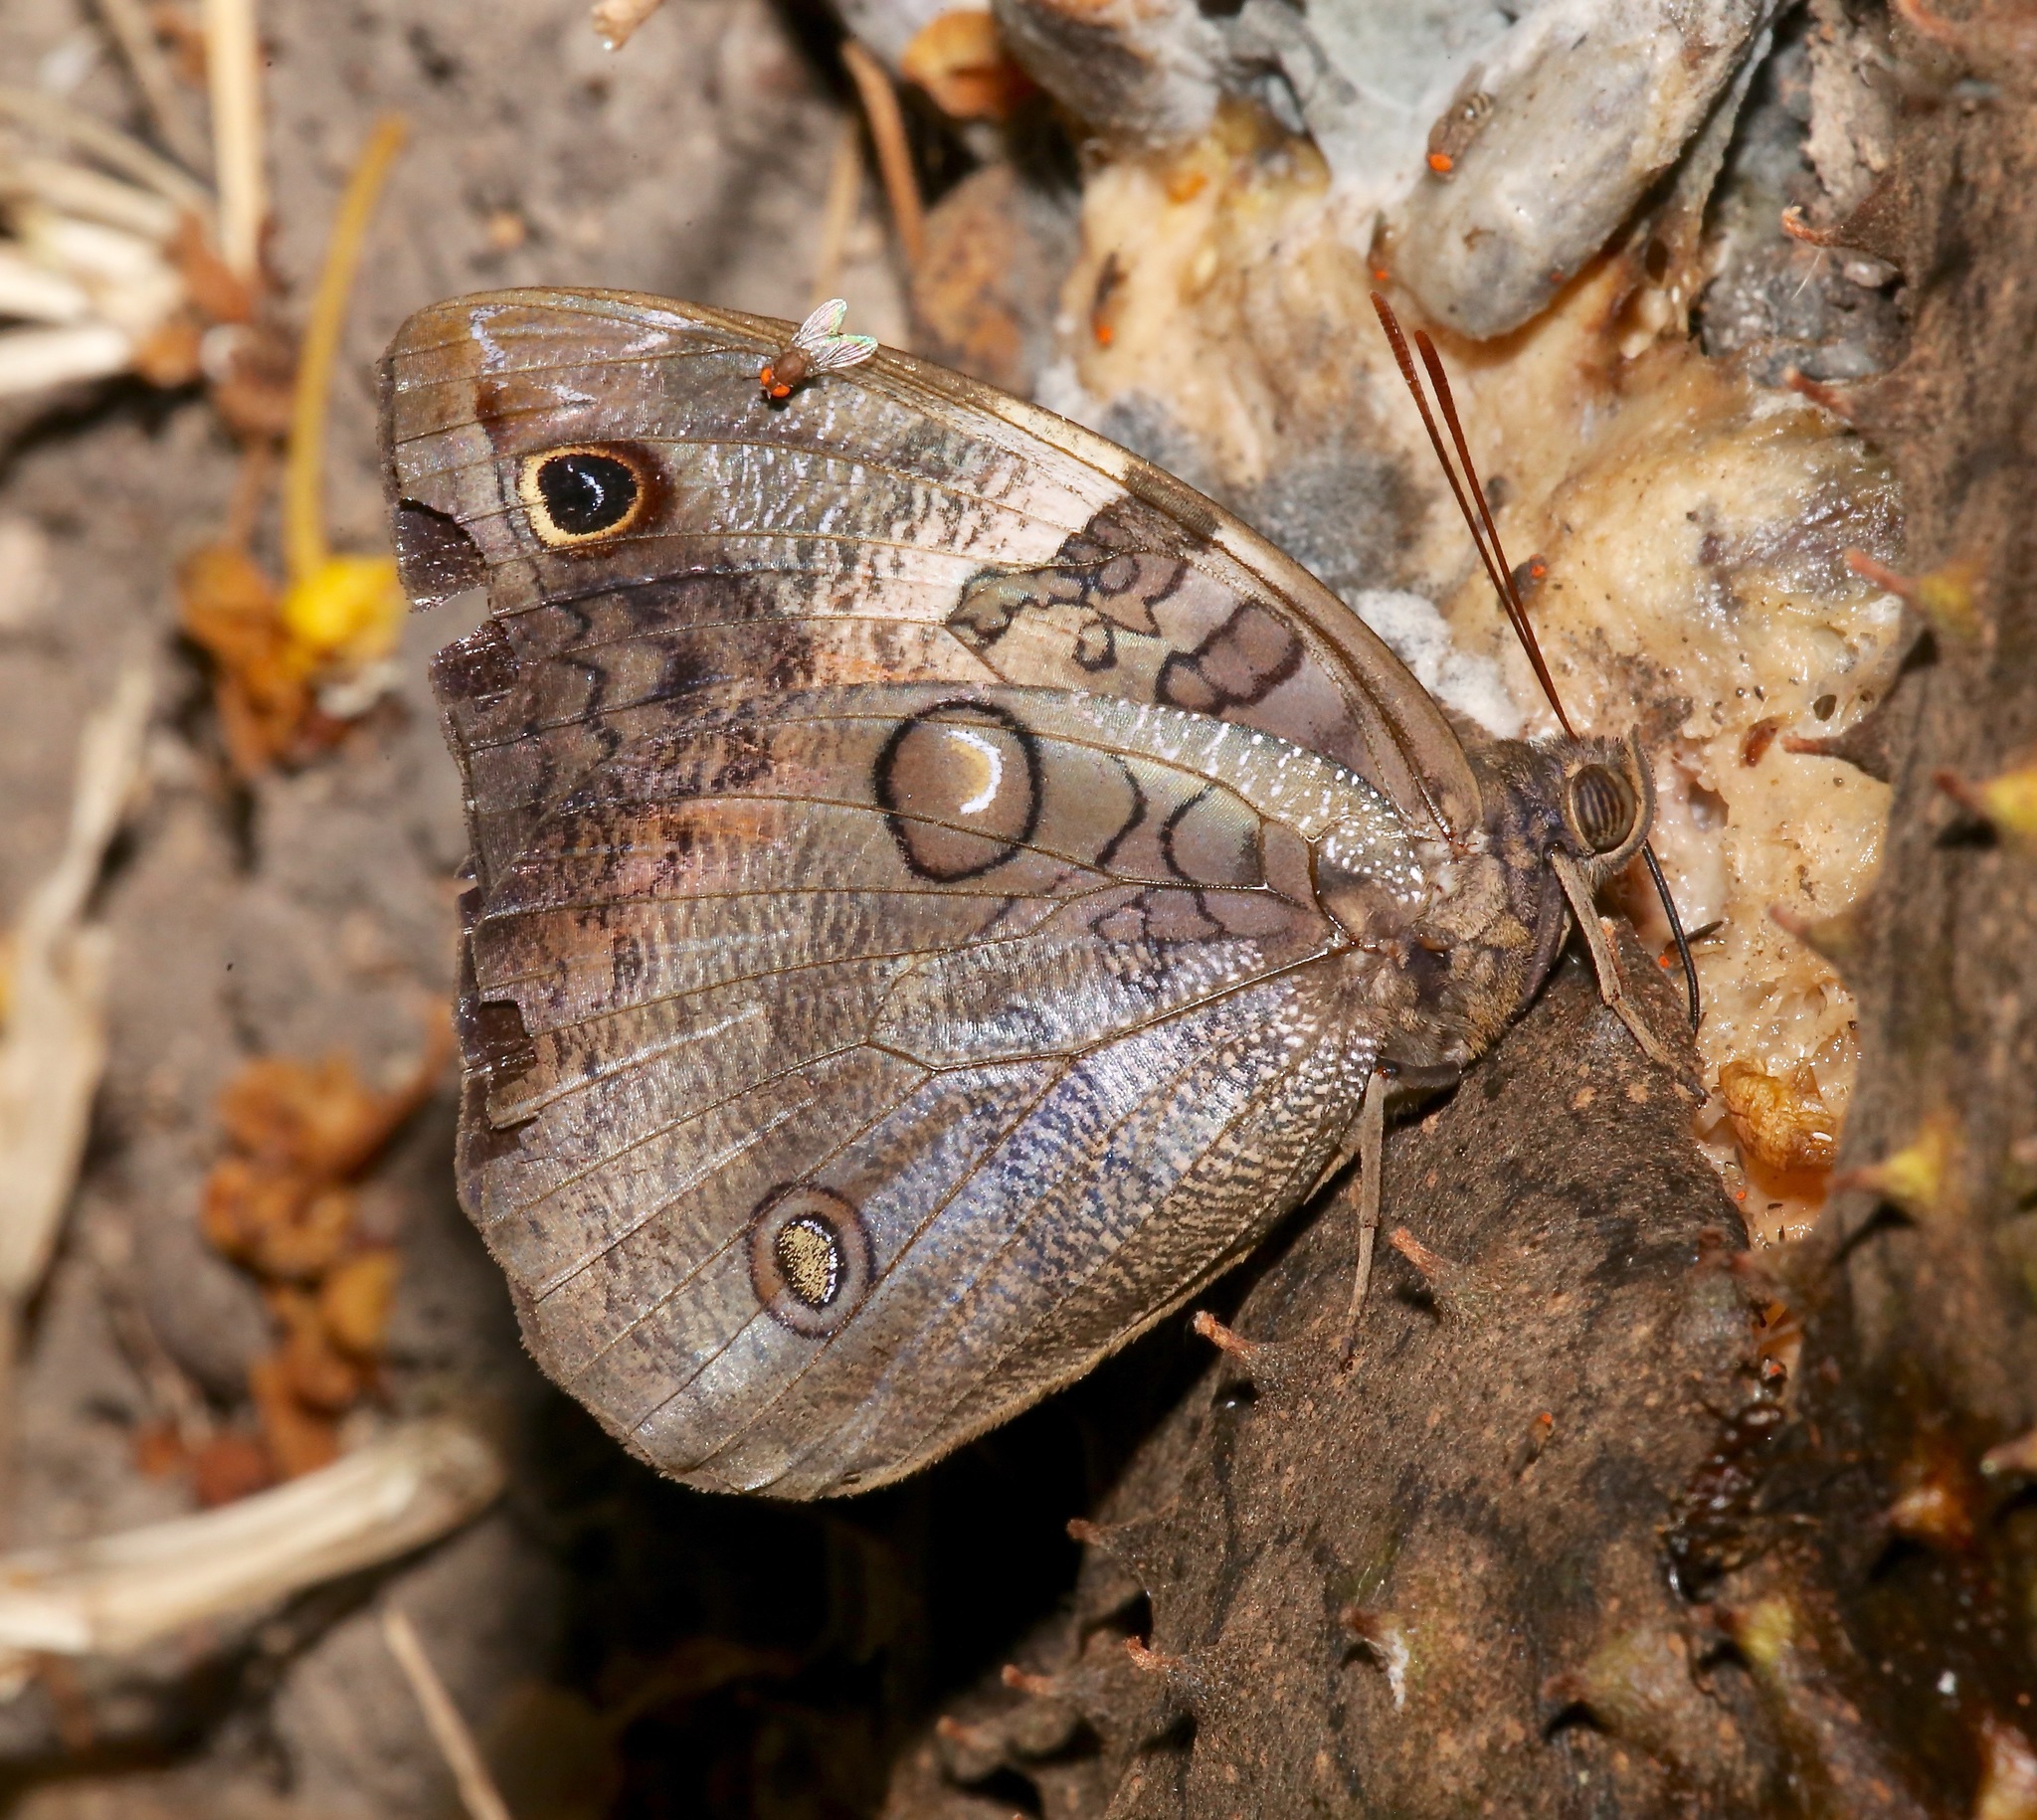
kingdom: Animalia
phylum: Arthropoda
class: Insecta
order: Lepidoptera
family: Nymphalidae
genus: Opsiphanes
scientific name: Opsiphanes cassiae
